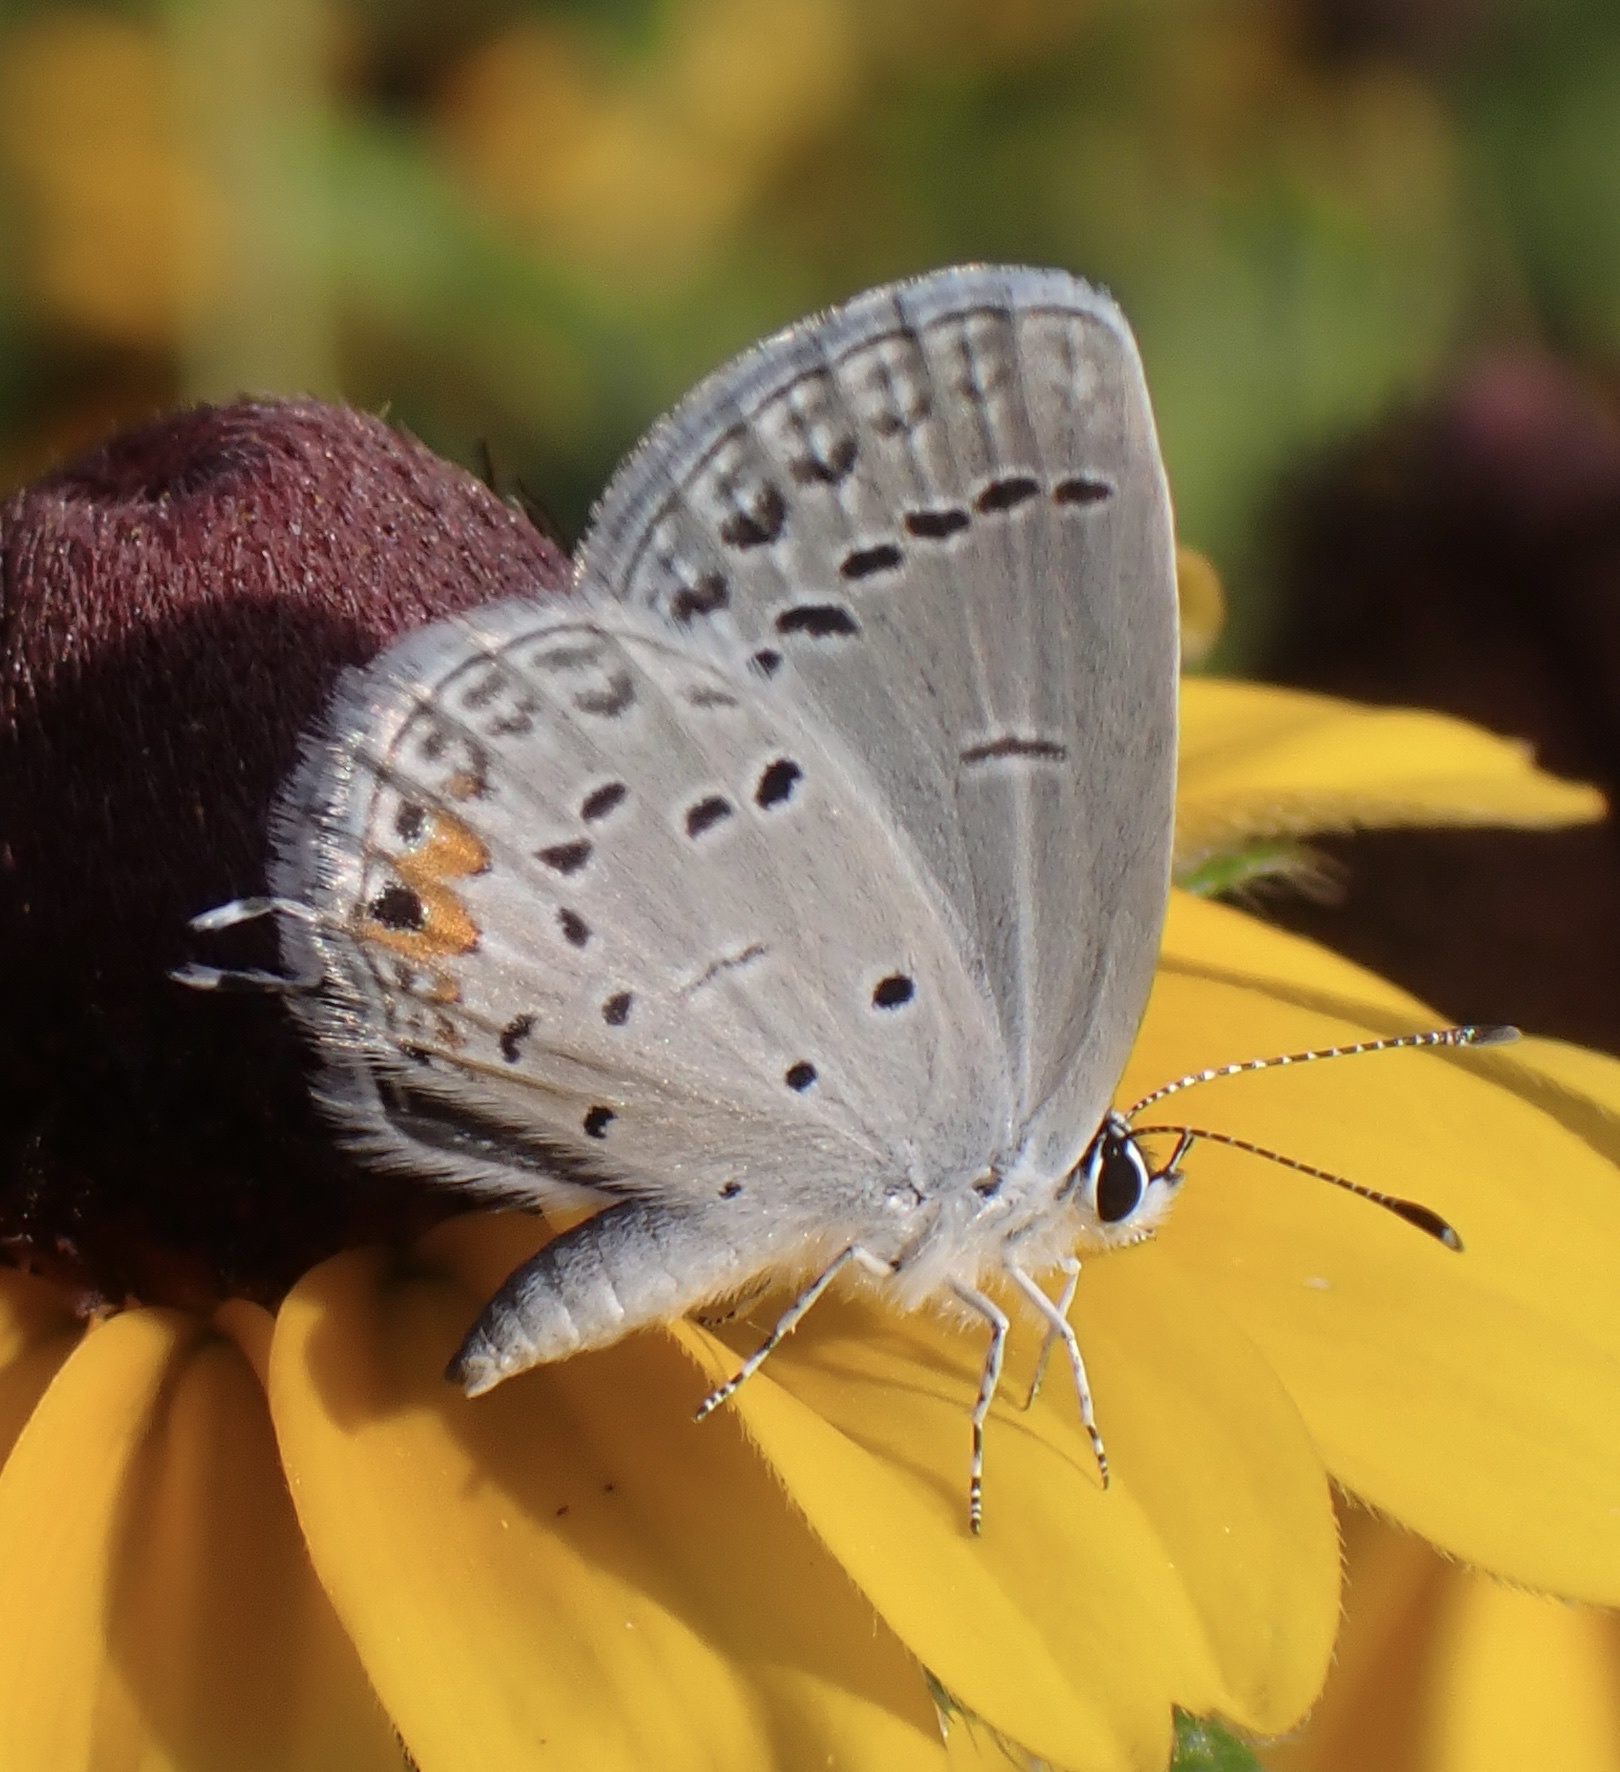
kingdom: Animalia
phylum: Arthropoda
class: Insecta
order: Lepidoptera
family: Lycaenidae
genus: Elkalyce
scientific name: Elkalyce comyntas
